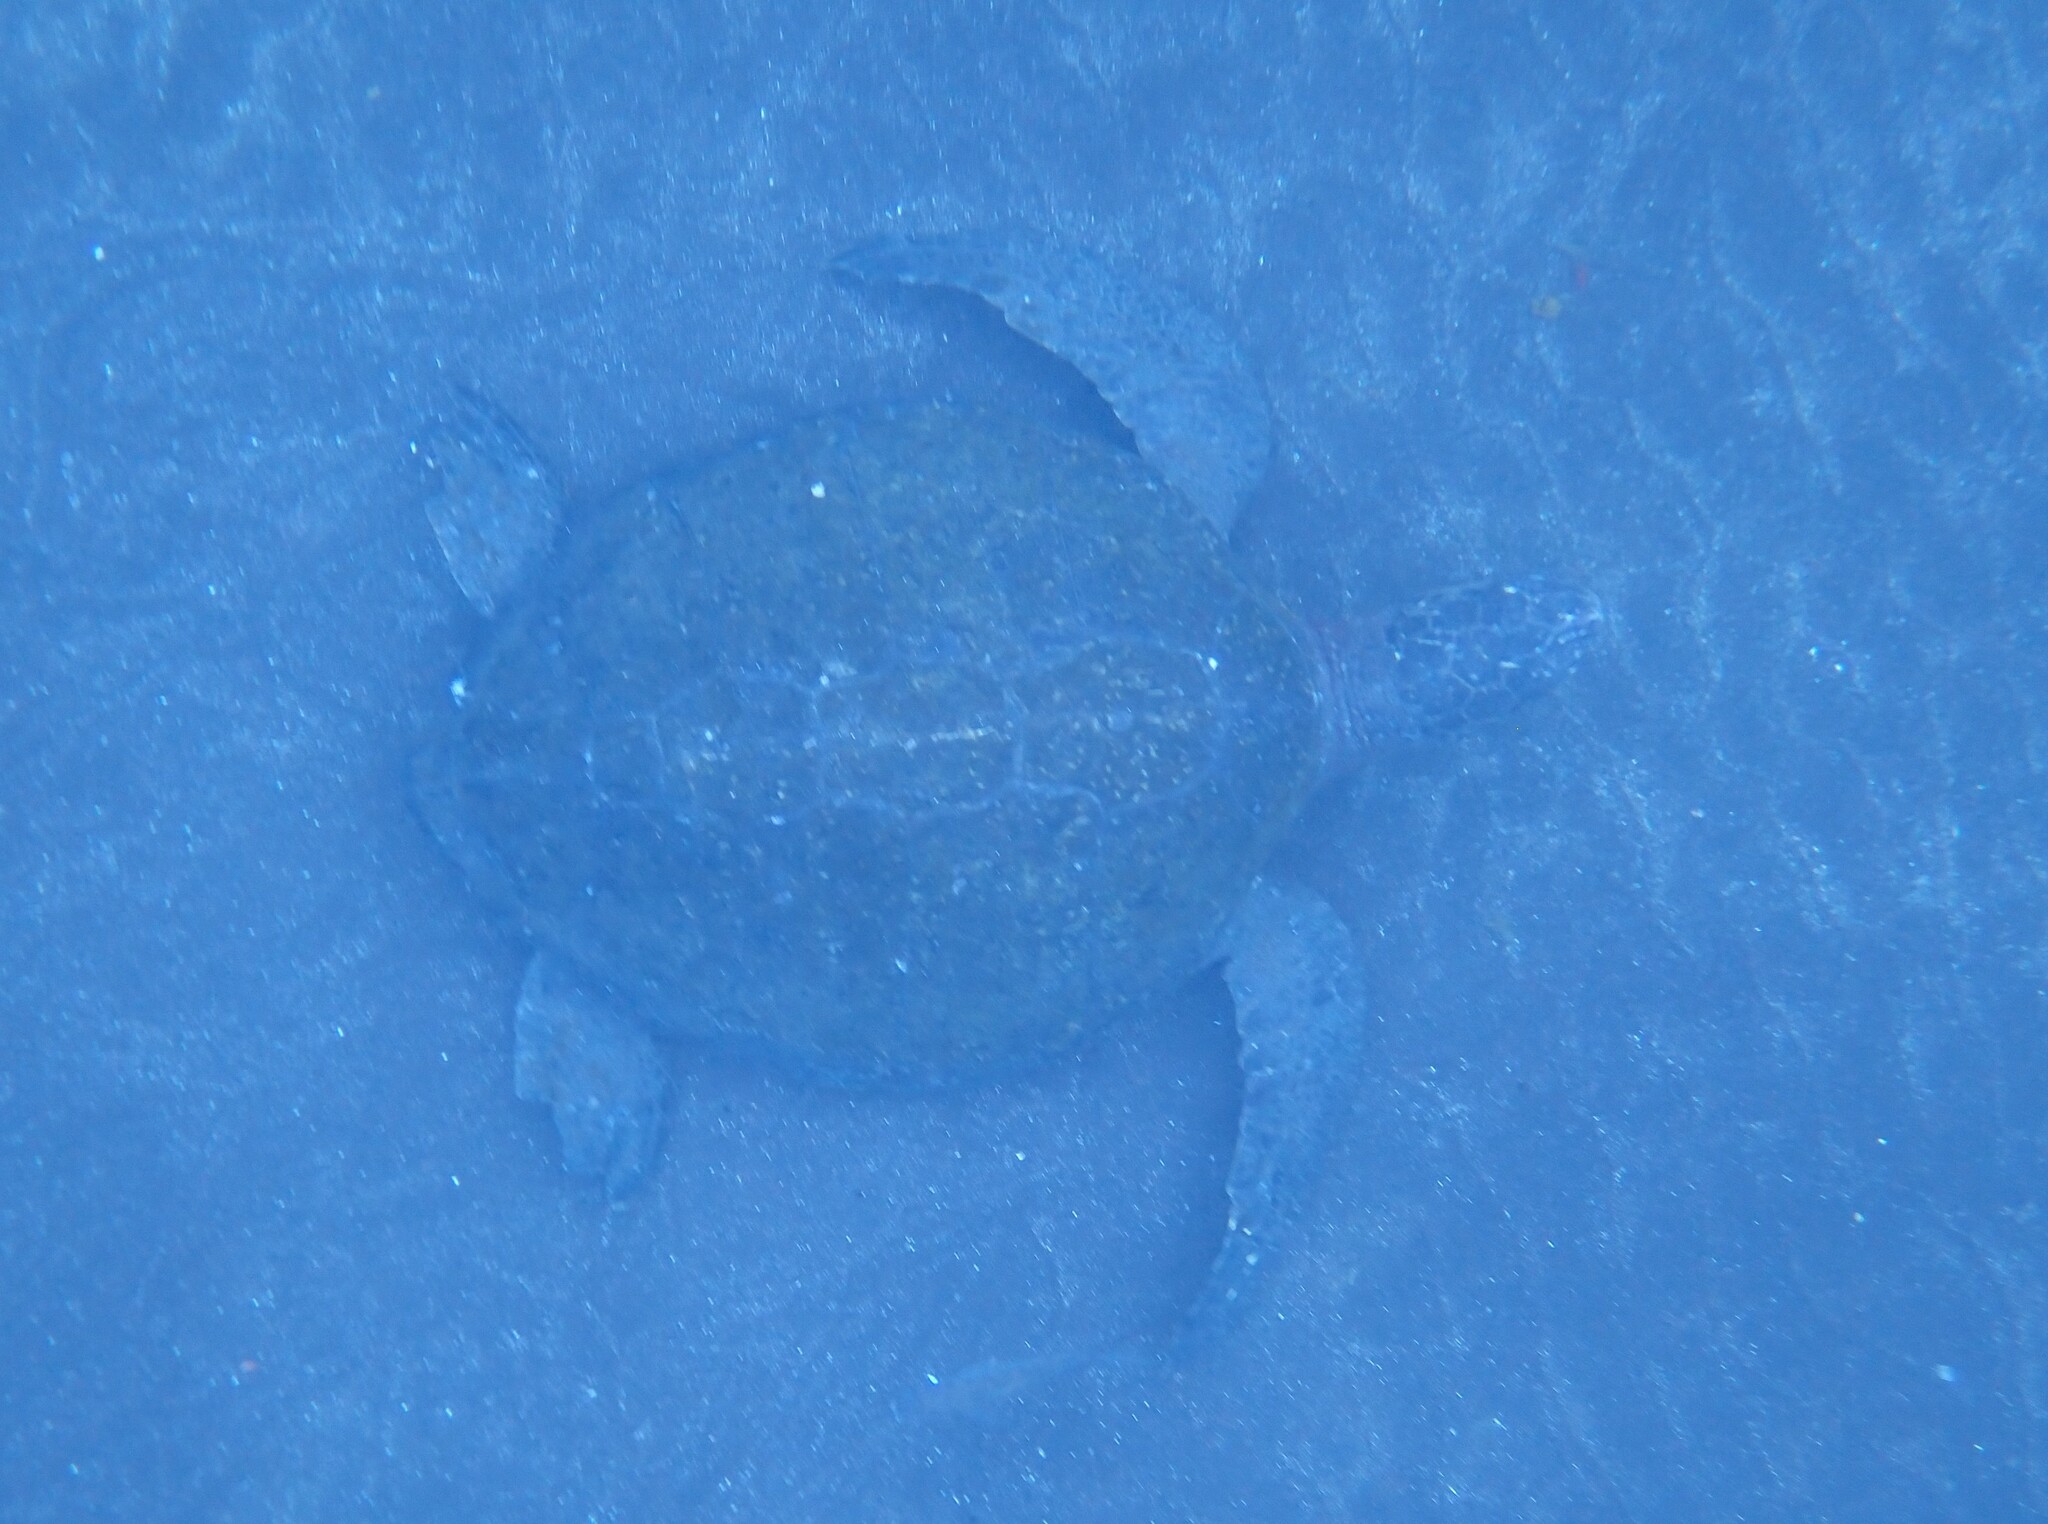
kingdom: Animalia
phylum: Chordata
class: Testudines
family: Cheloniidae
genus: Chelonia
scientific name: Chelonia mydas
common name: Green turtle
